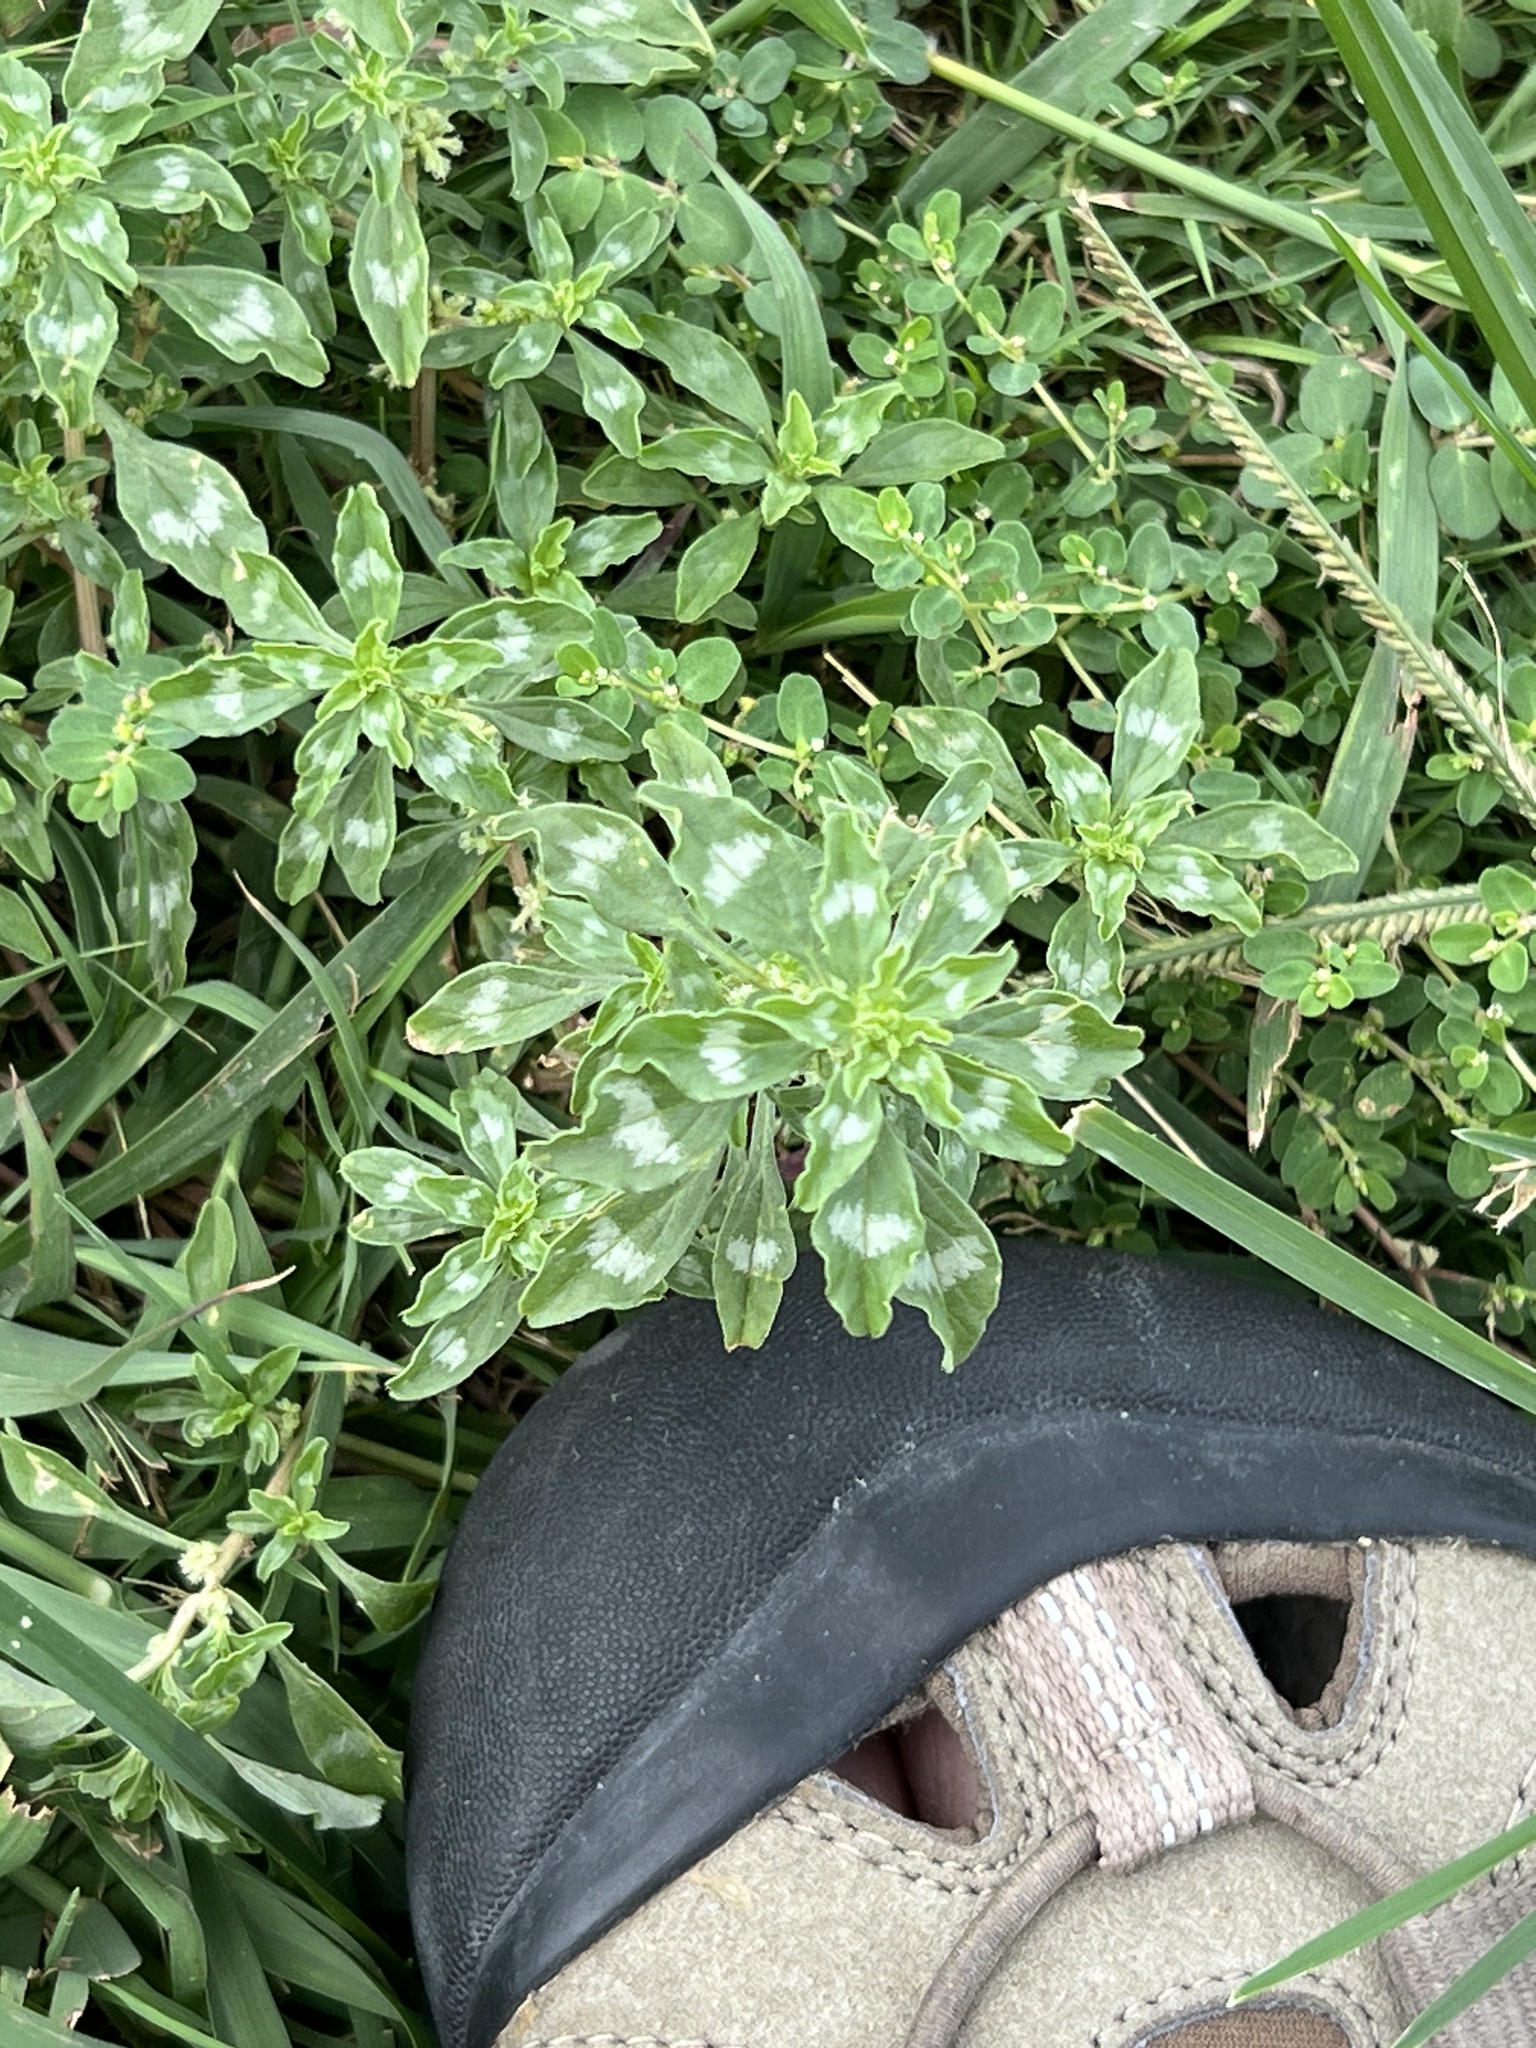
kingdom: Plantae
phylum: Tracheophyta
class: Magnoliopsida
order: Caryophyllales
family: Amaranthaceae
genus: Amaranthus
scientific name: Amaranthus polygonoides
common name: Tropical amaranth
